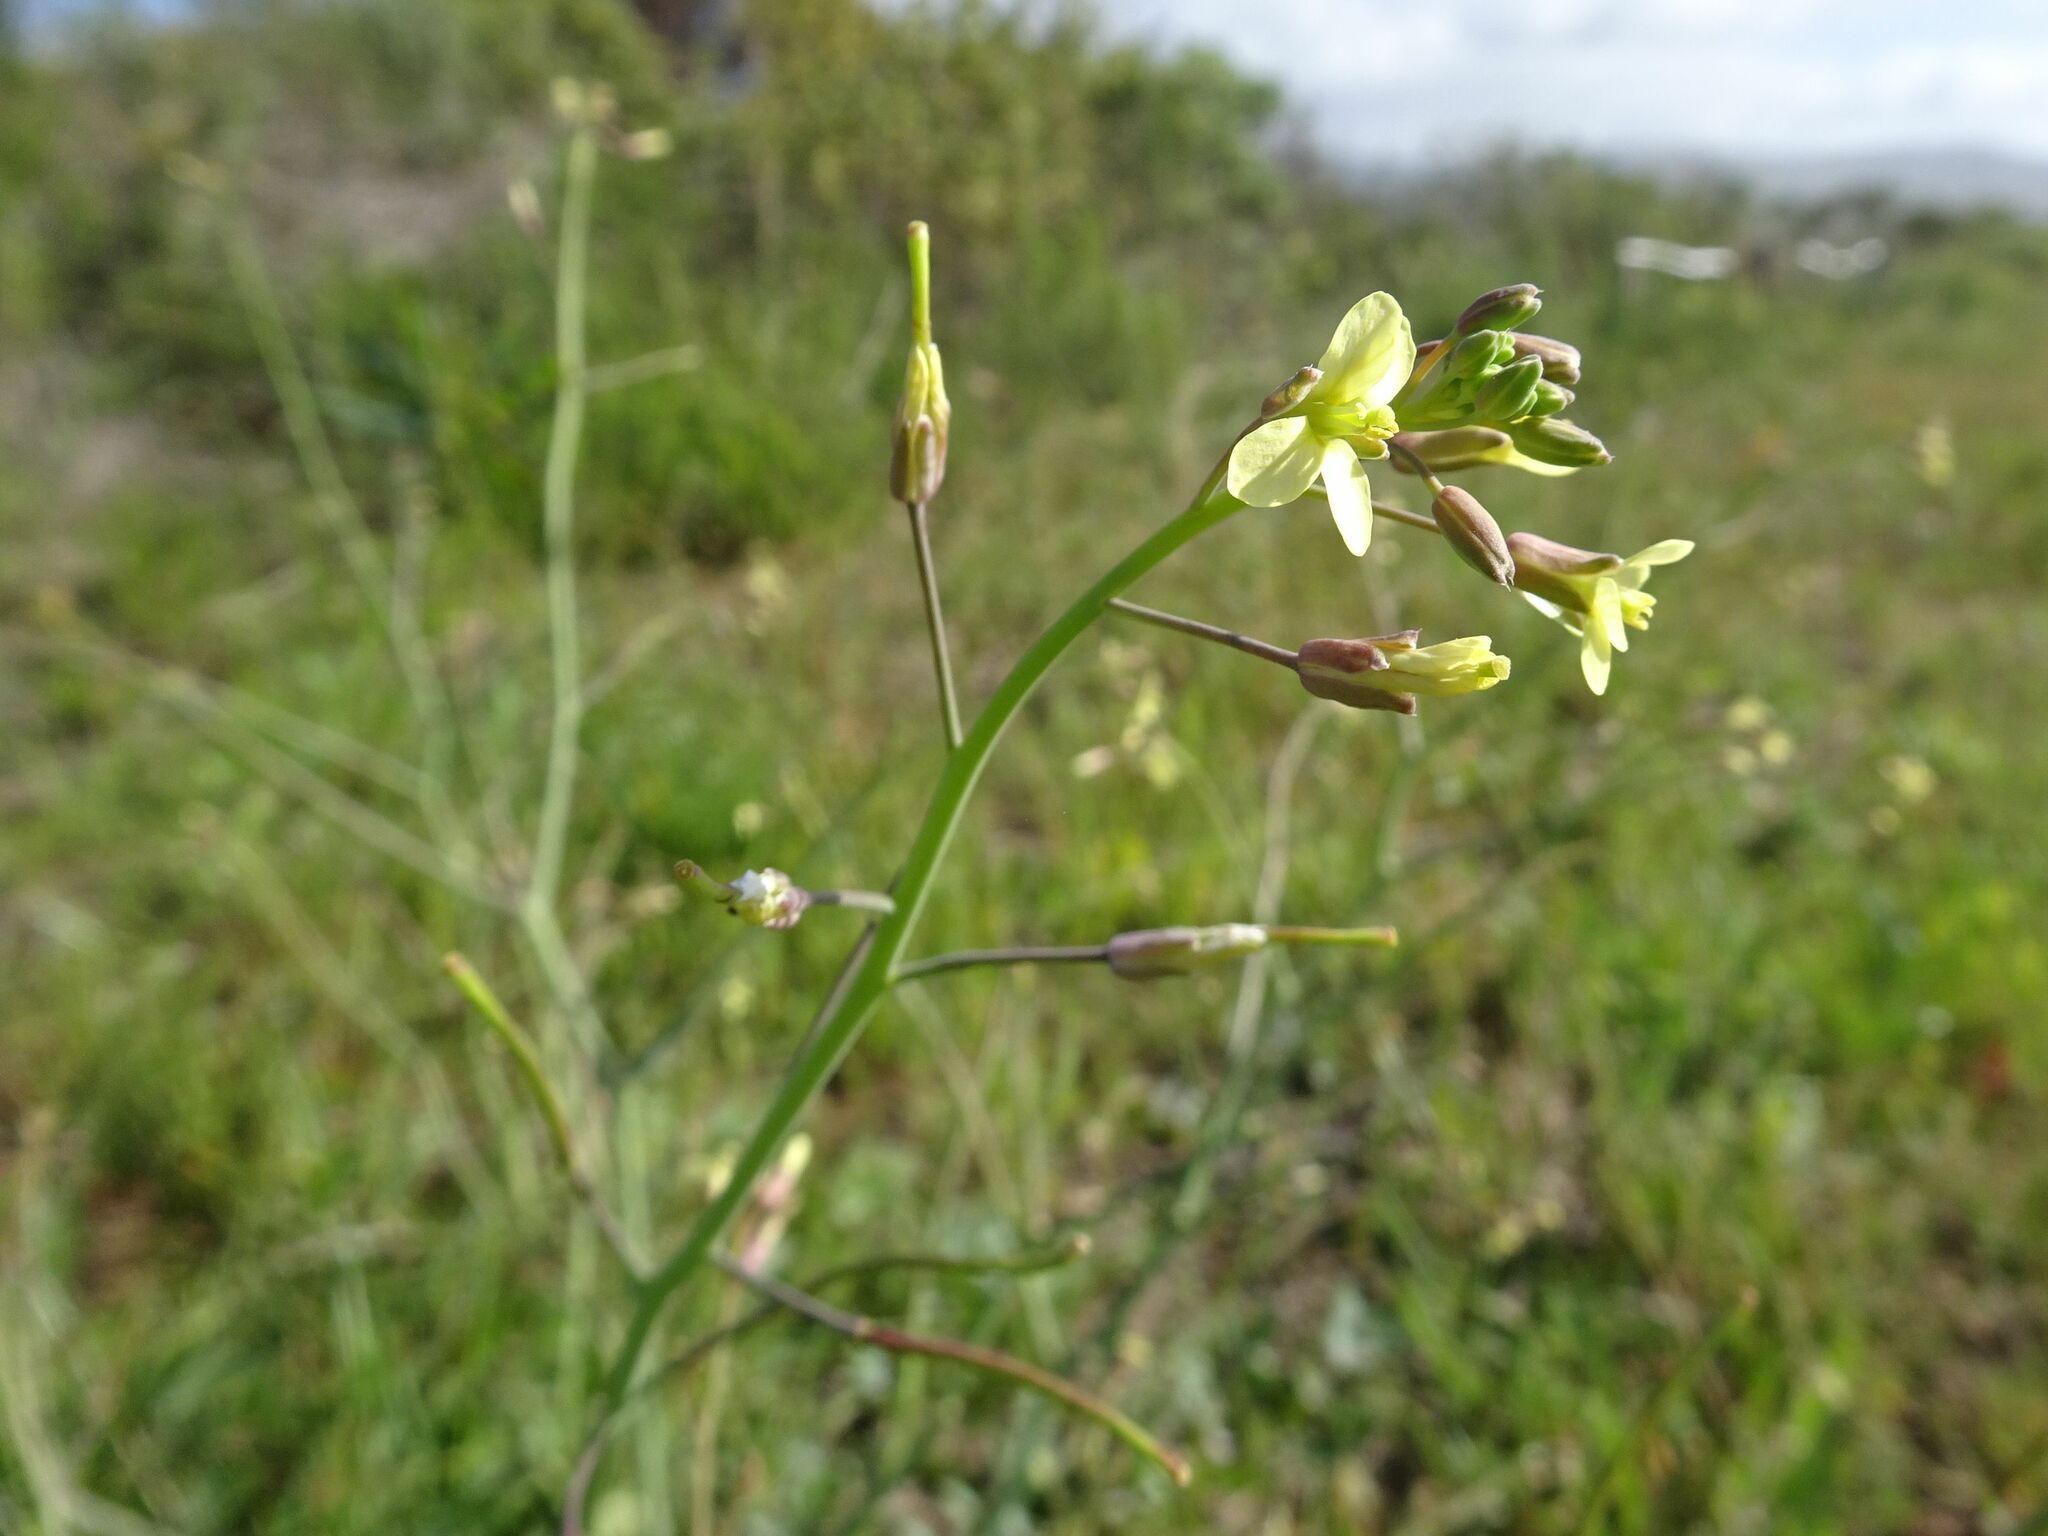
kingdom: Plantae
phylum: Tracheophyta
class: Magnoliopsida
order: Brassicales
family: Brassicaceae
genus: Brassica
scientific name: Brassica tournefortii
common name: Pale cabbage
